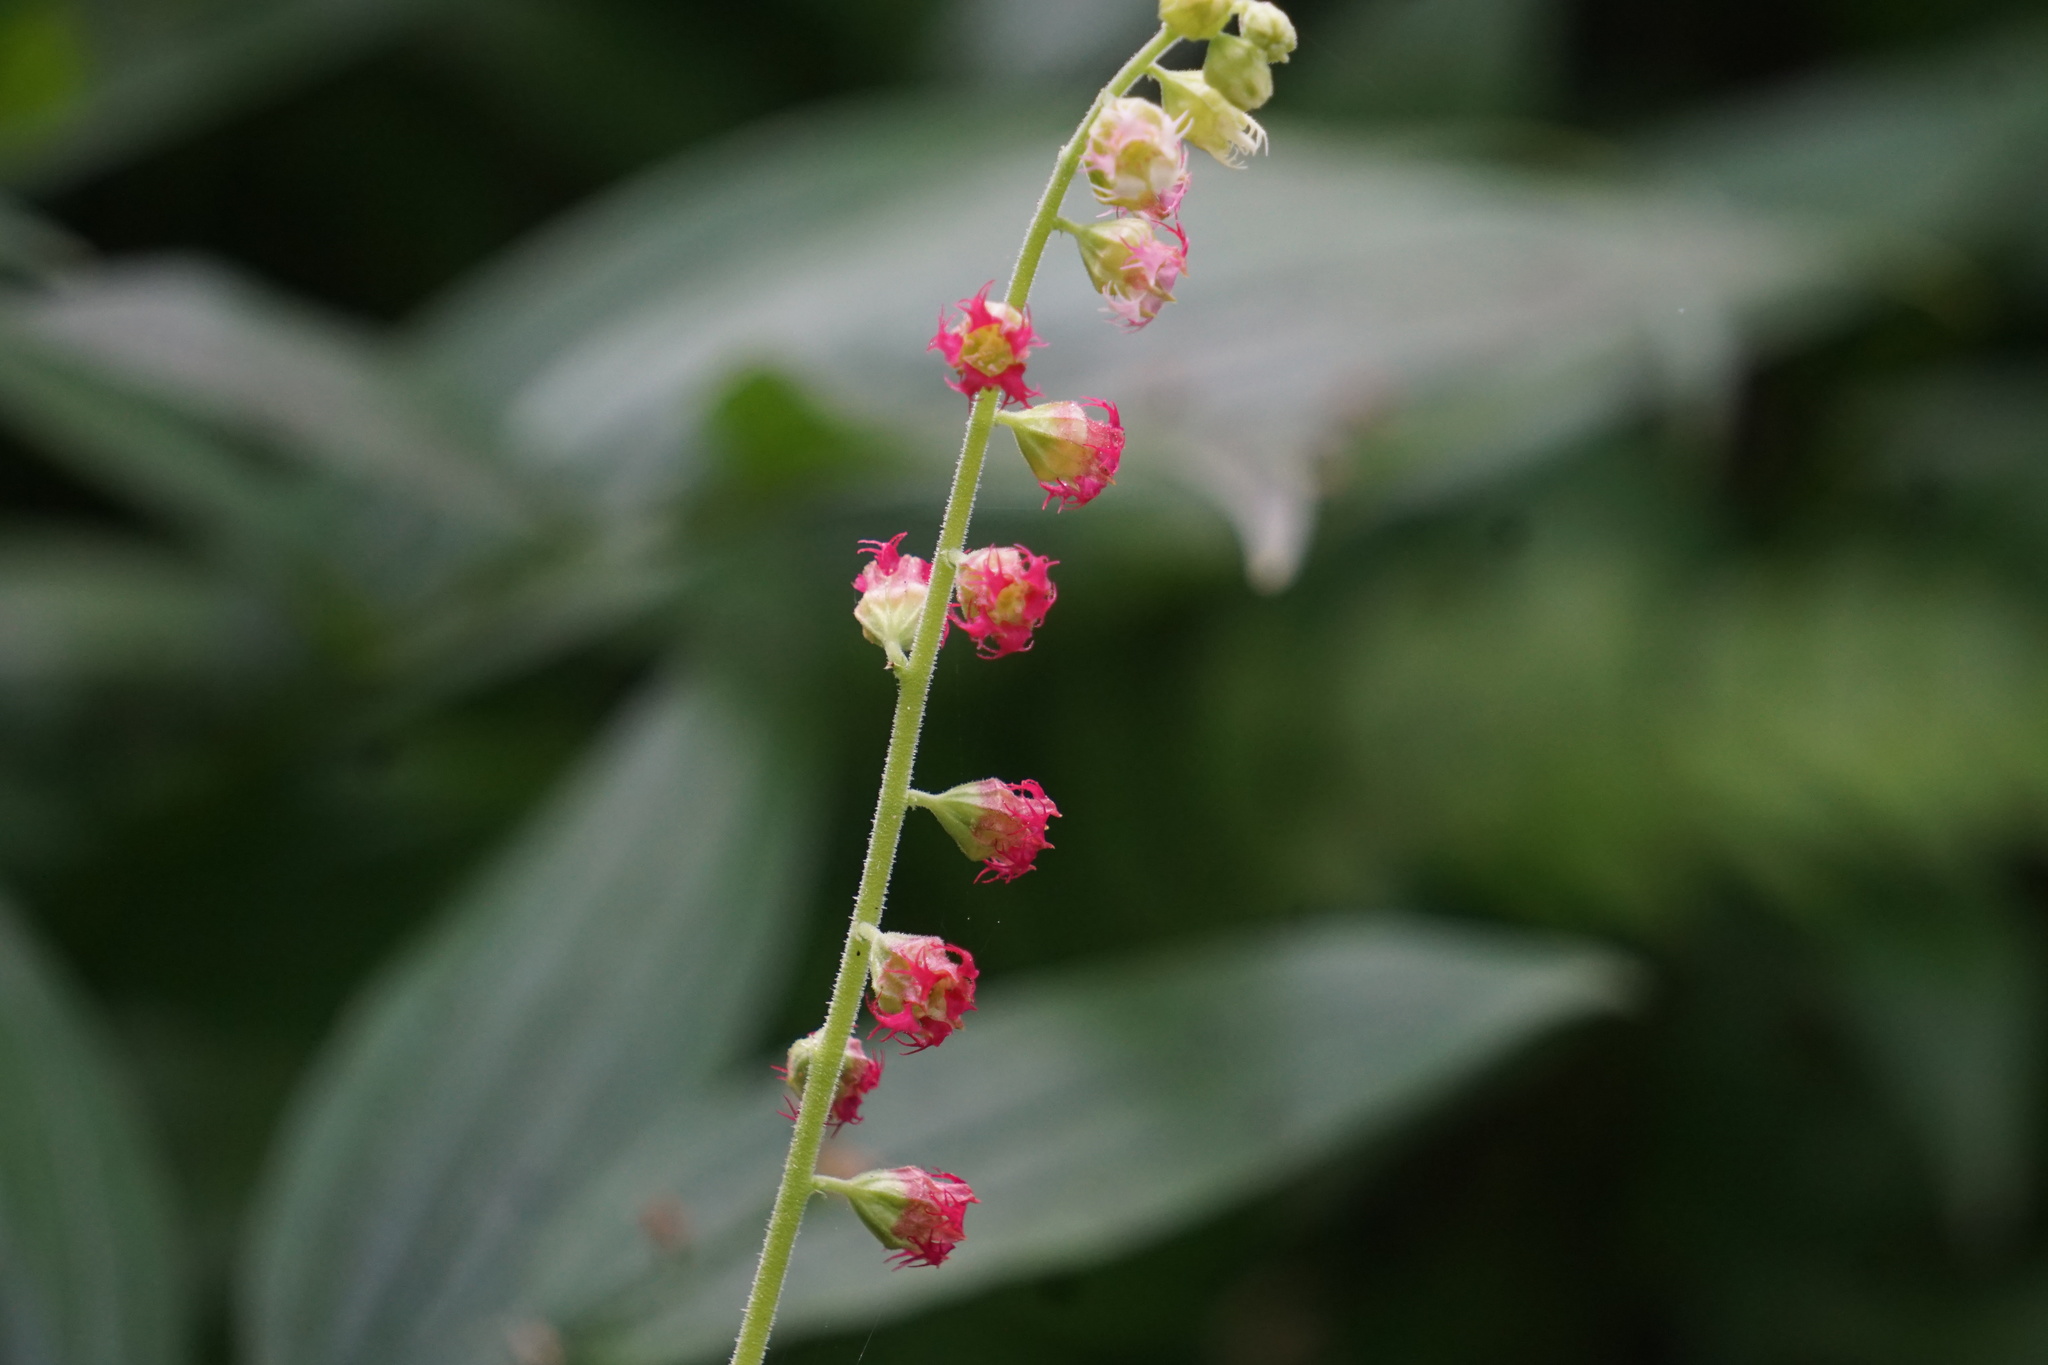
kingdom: Plantae
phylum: Tracheophyta
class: Magnoliopsida
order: Saxifragales
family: Saxifragaceae
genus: Tellima
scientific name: Tellima grandiflora
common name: Fringecups
